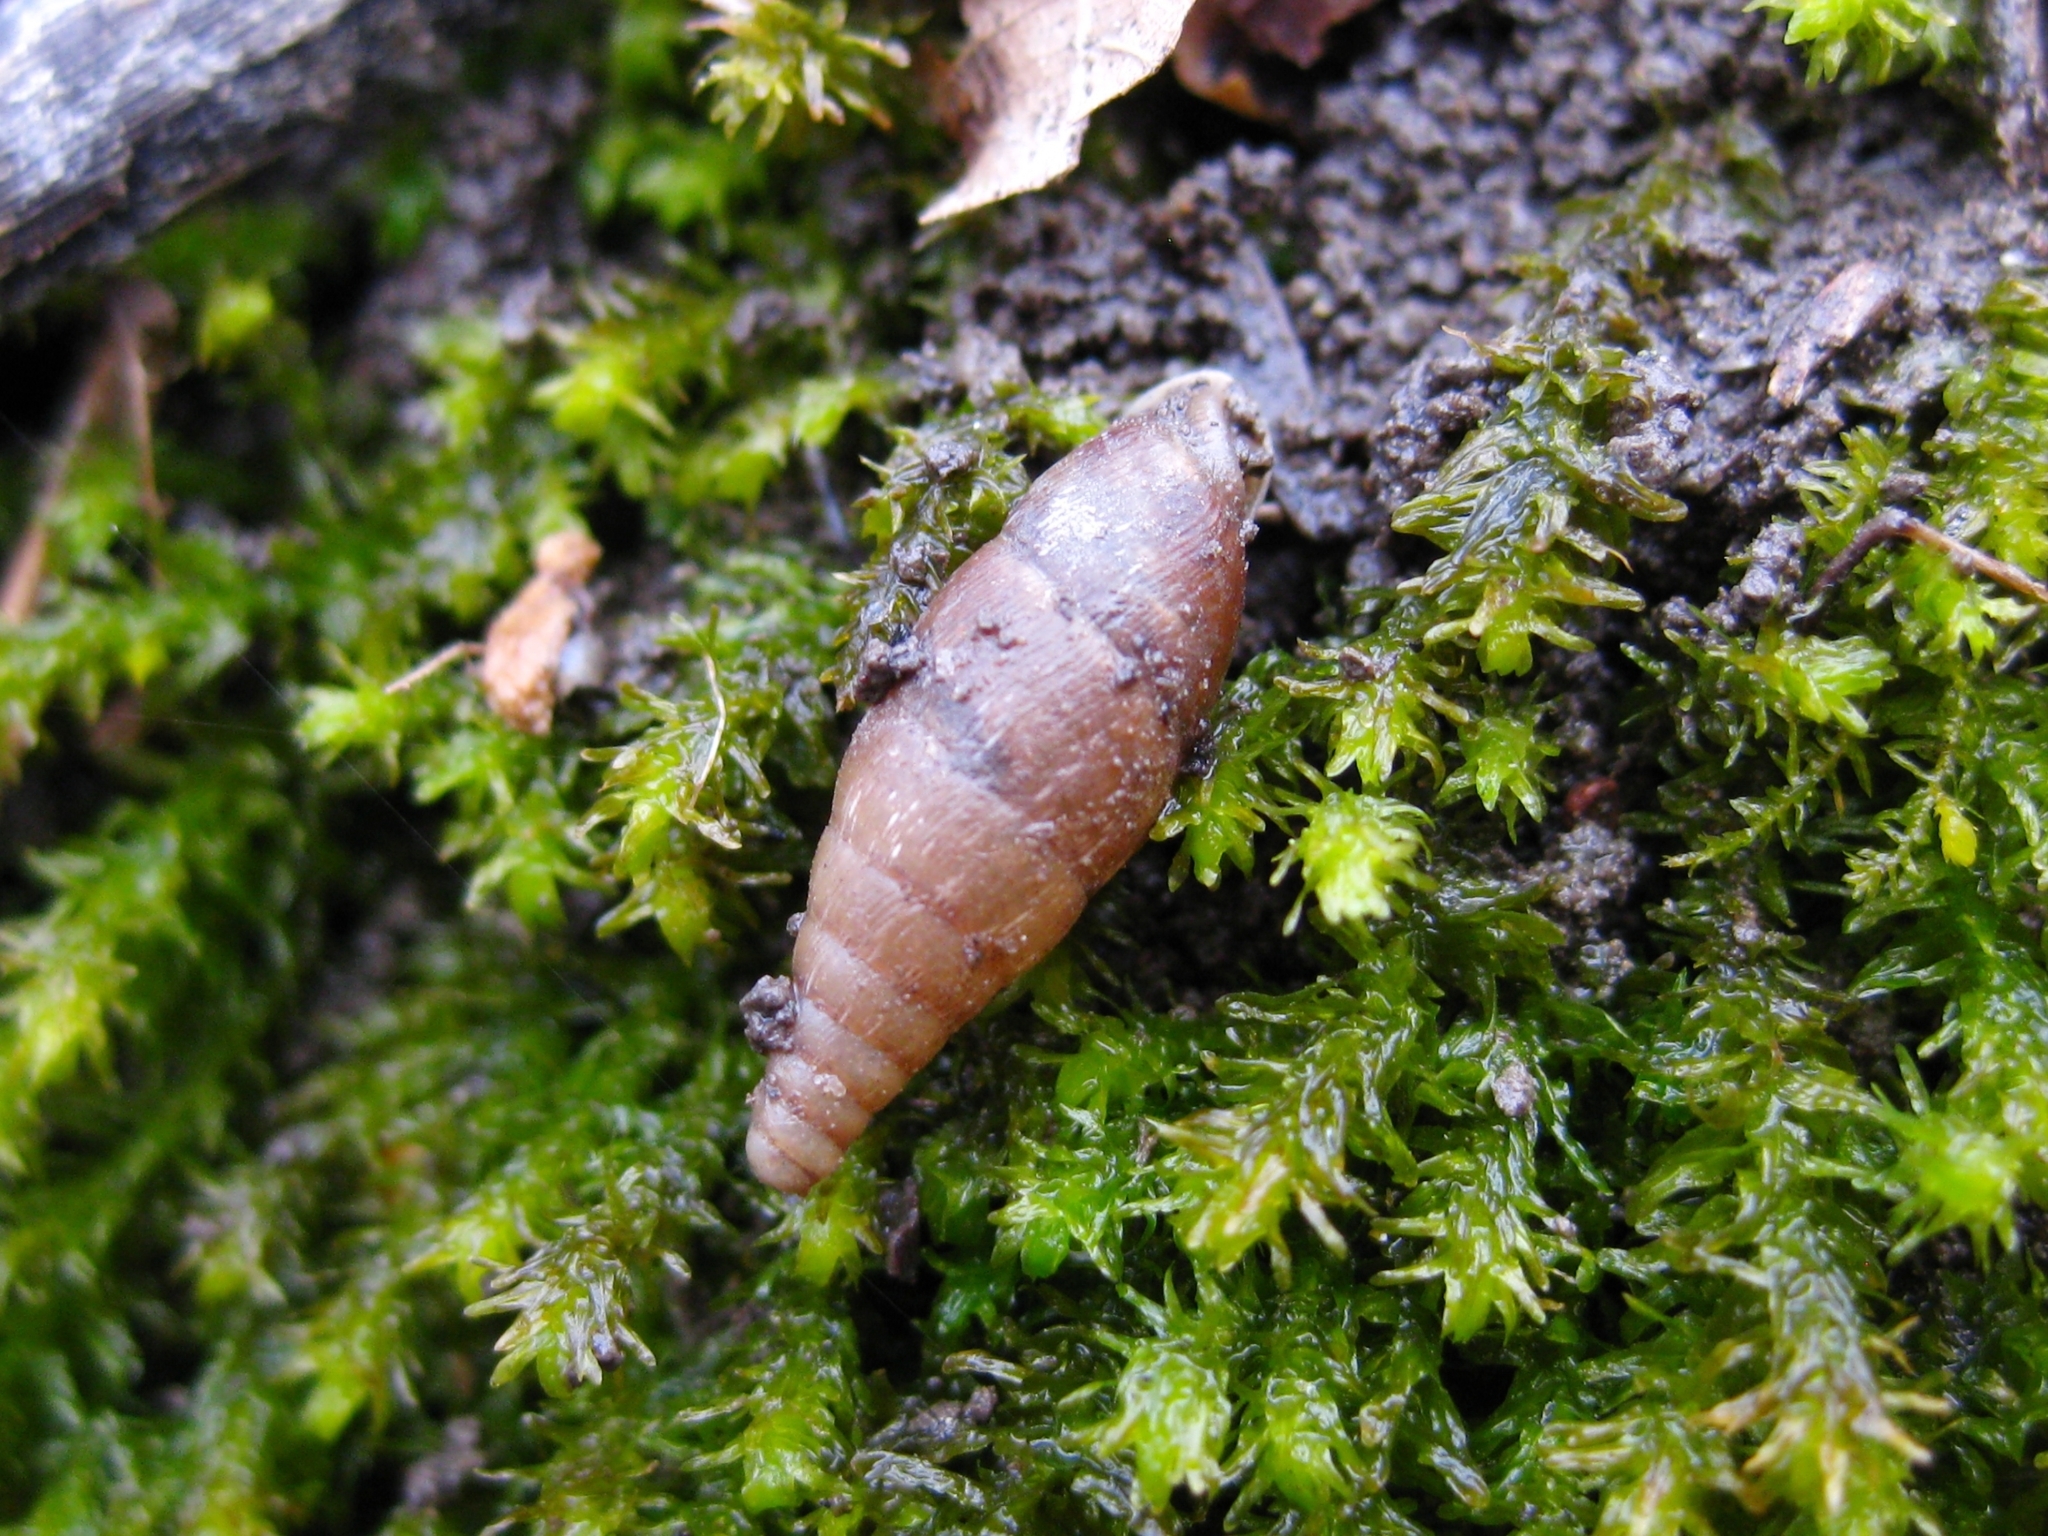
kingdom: Animalia
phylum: Mollusca
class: Gastropoda
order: Stylommatophora
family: Clausiliidae
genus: Elia
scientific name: Elia somchetica
